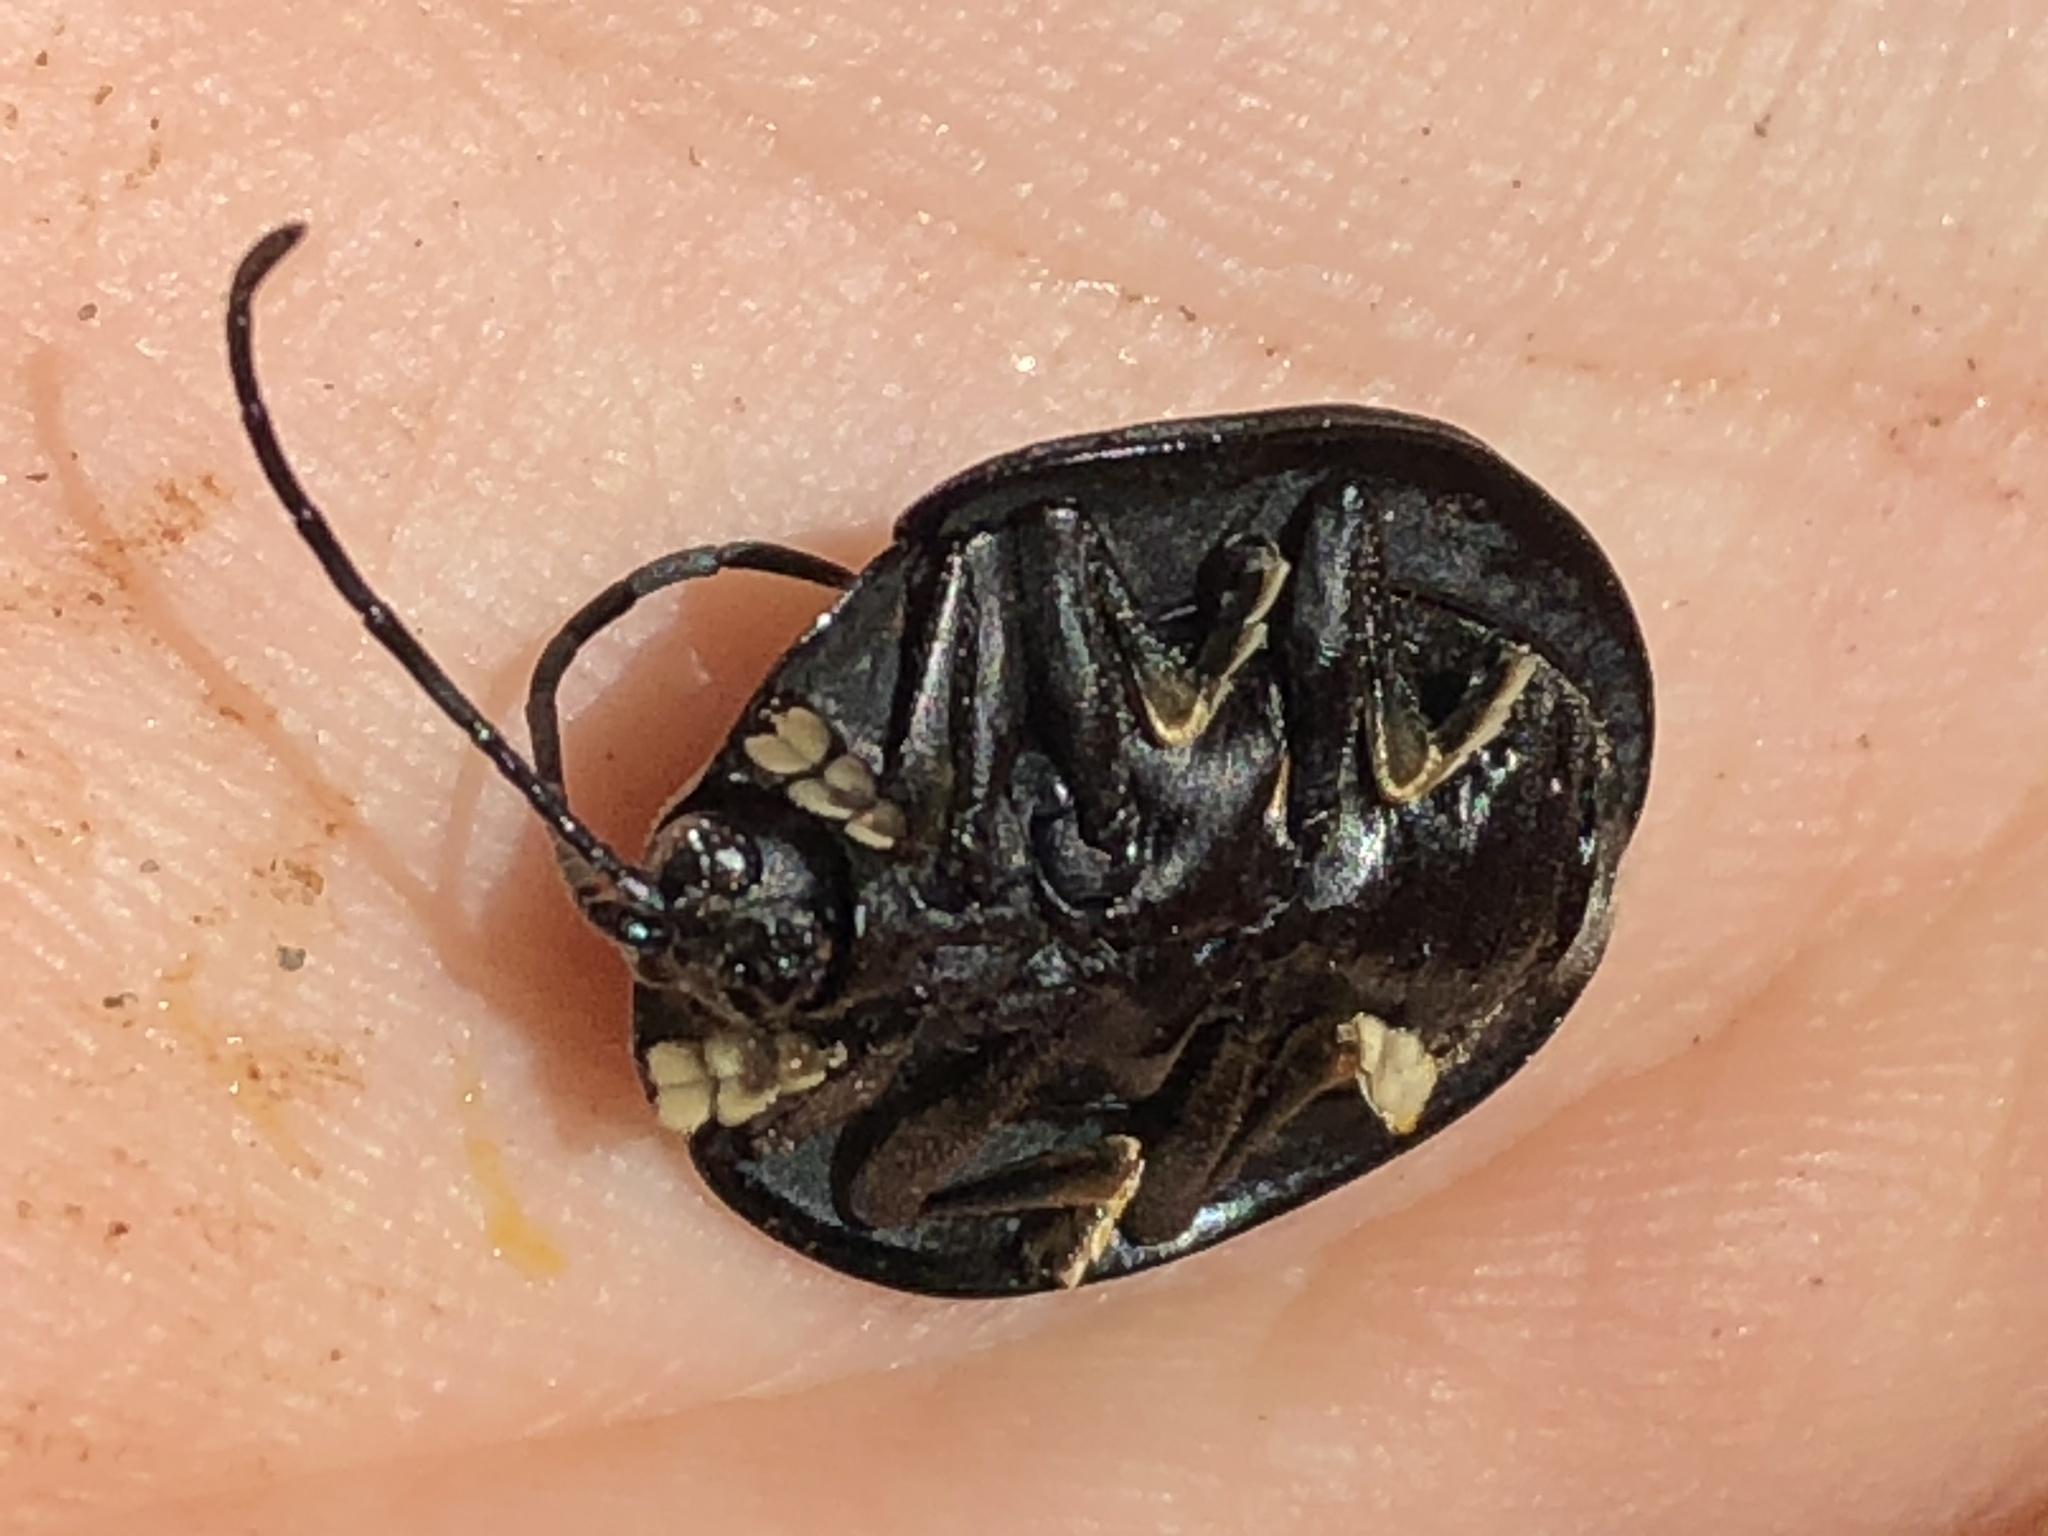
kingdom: Animalia
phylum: Arthropoda
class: Insecta
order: Coleoptera
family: Chrysomelidae
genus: Cyclosoma
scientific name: Cyclosoma tristis
